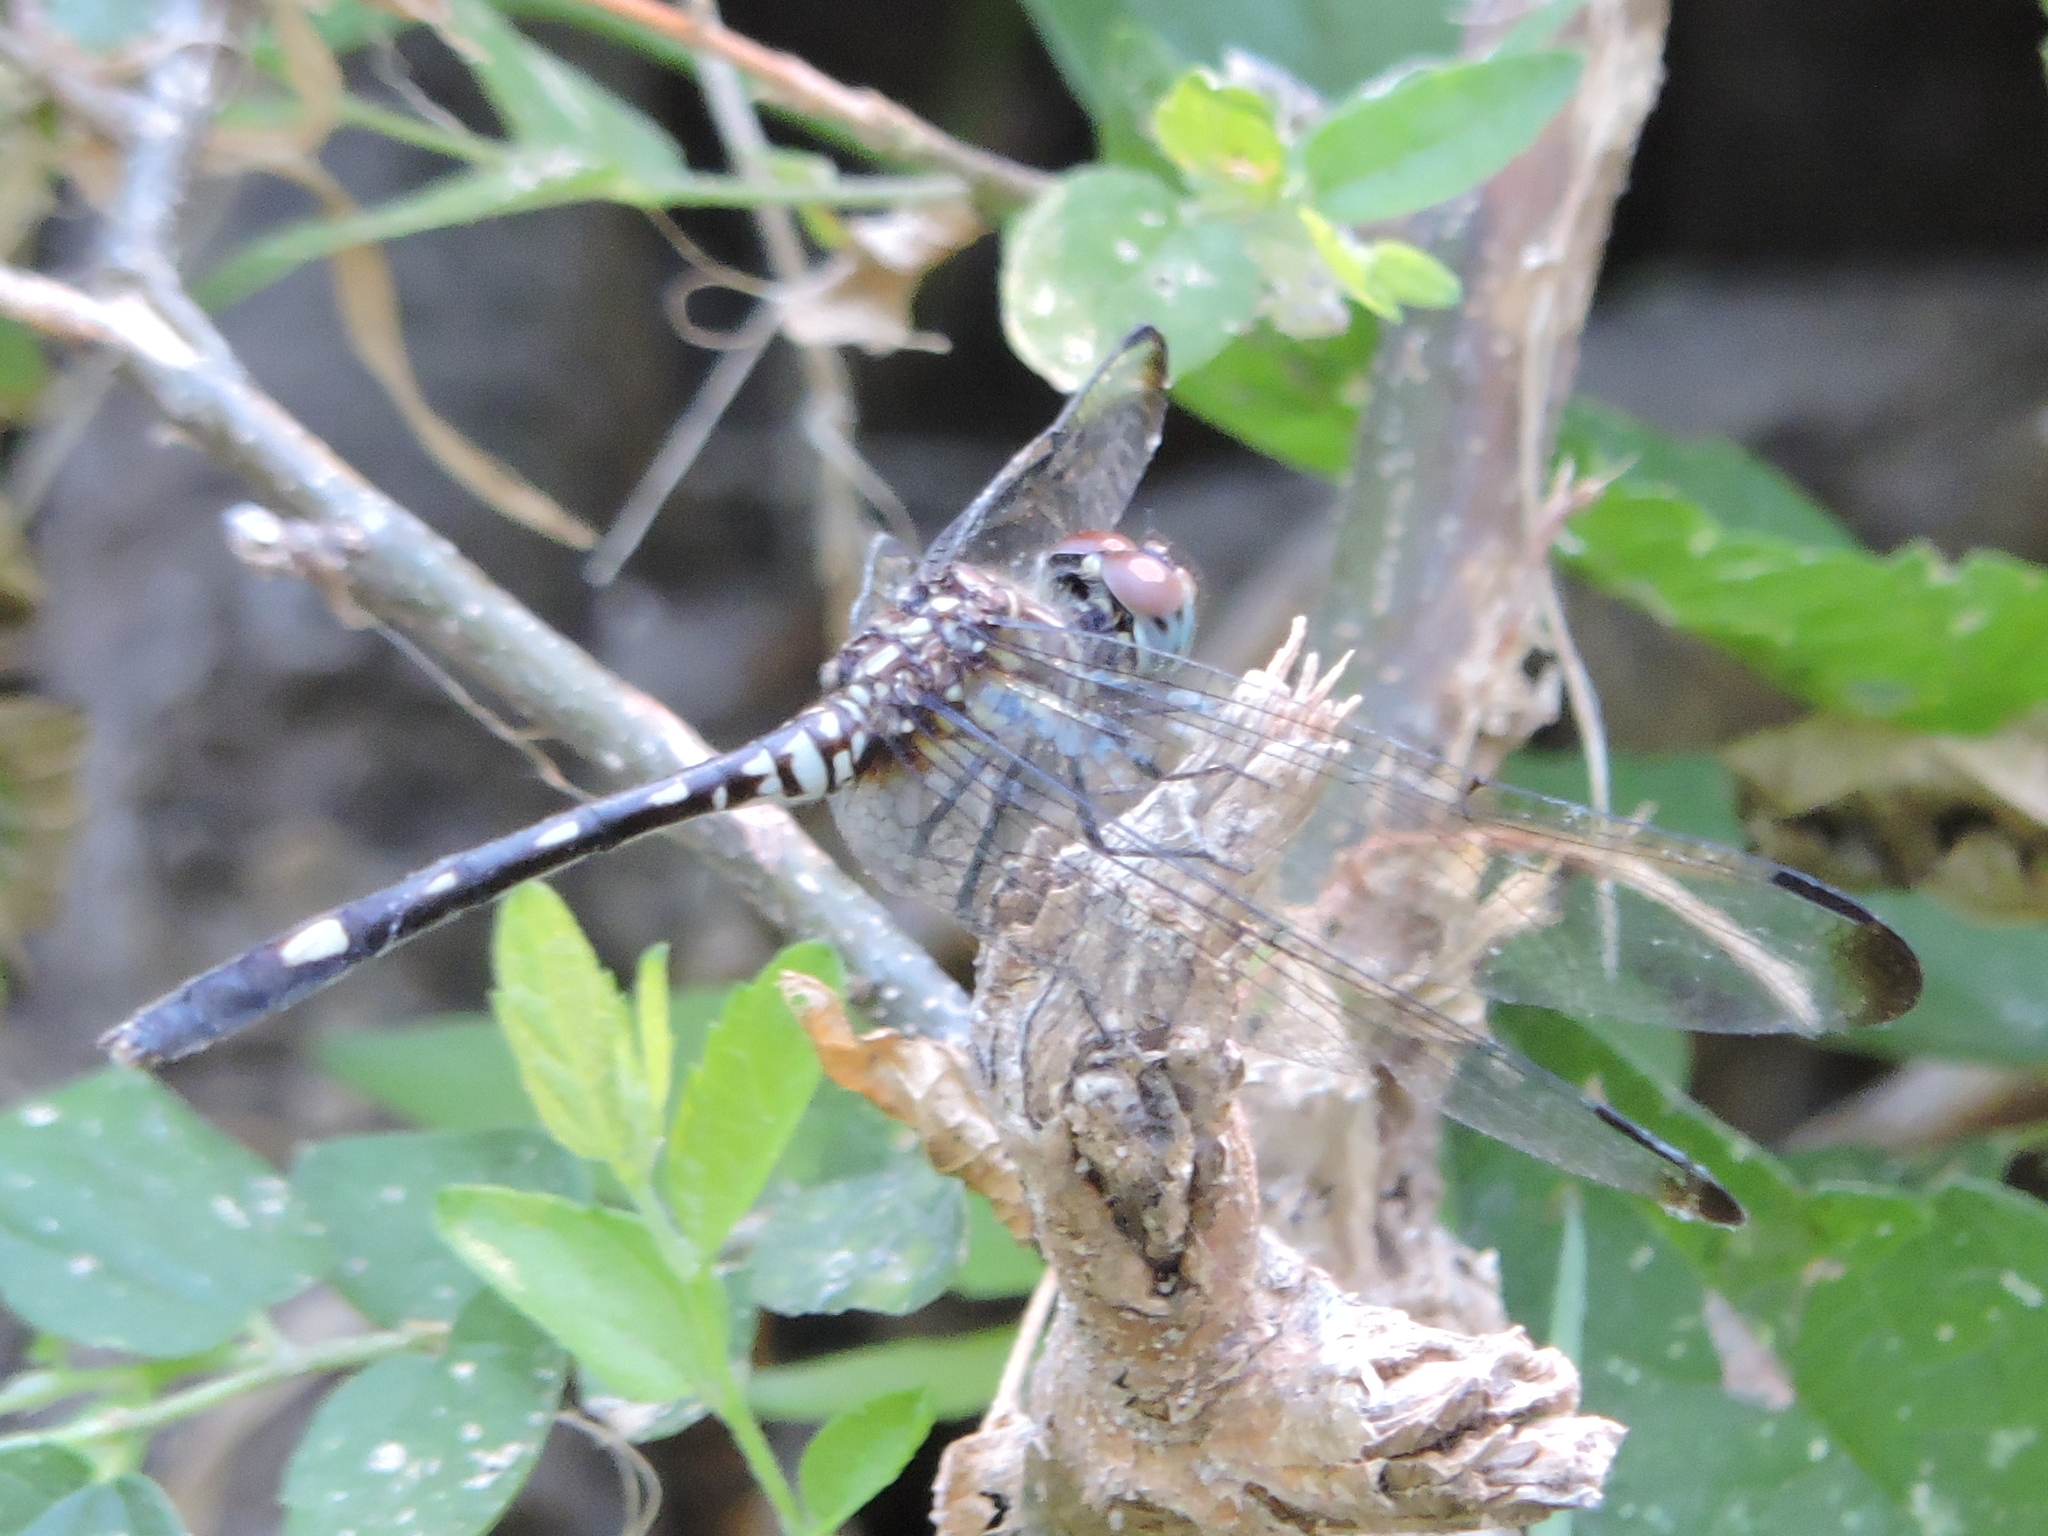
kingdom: Animalia
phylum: Arthropoda
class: Insecta
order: Odonata
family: Libellulidae
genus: Dythemis
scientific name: Dythemis velox
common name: Swift setwing
